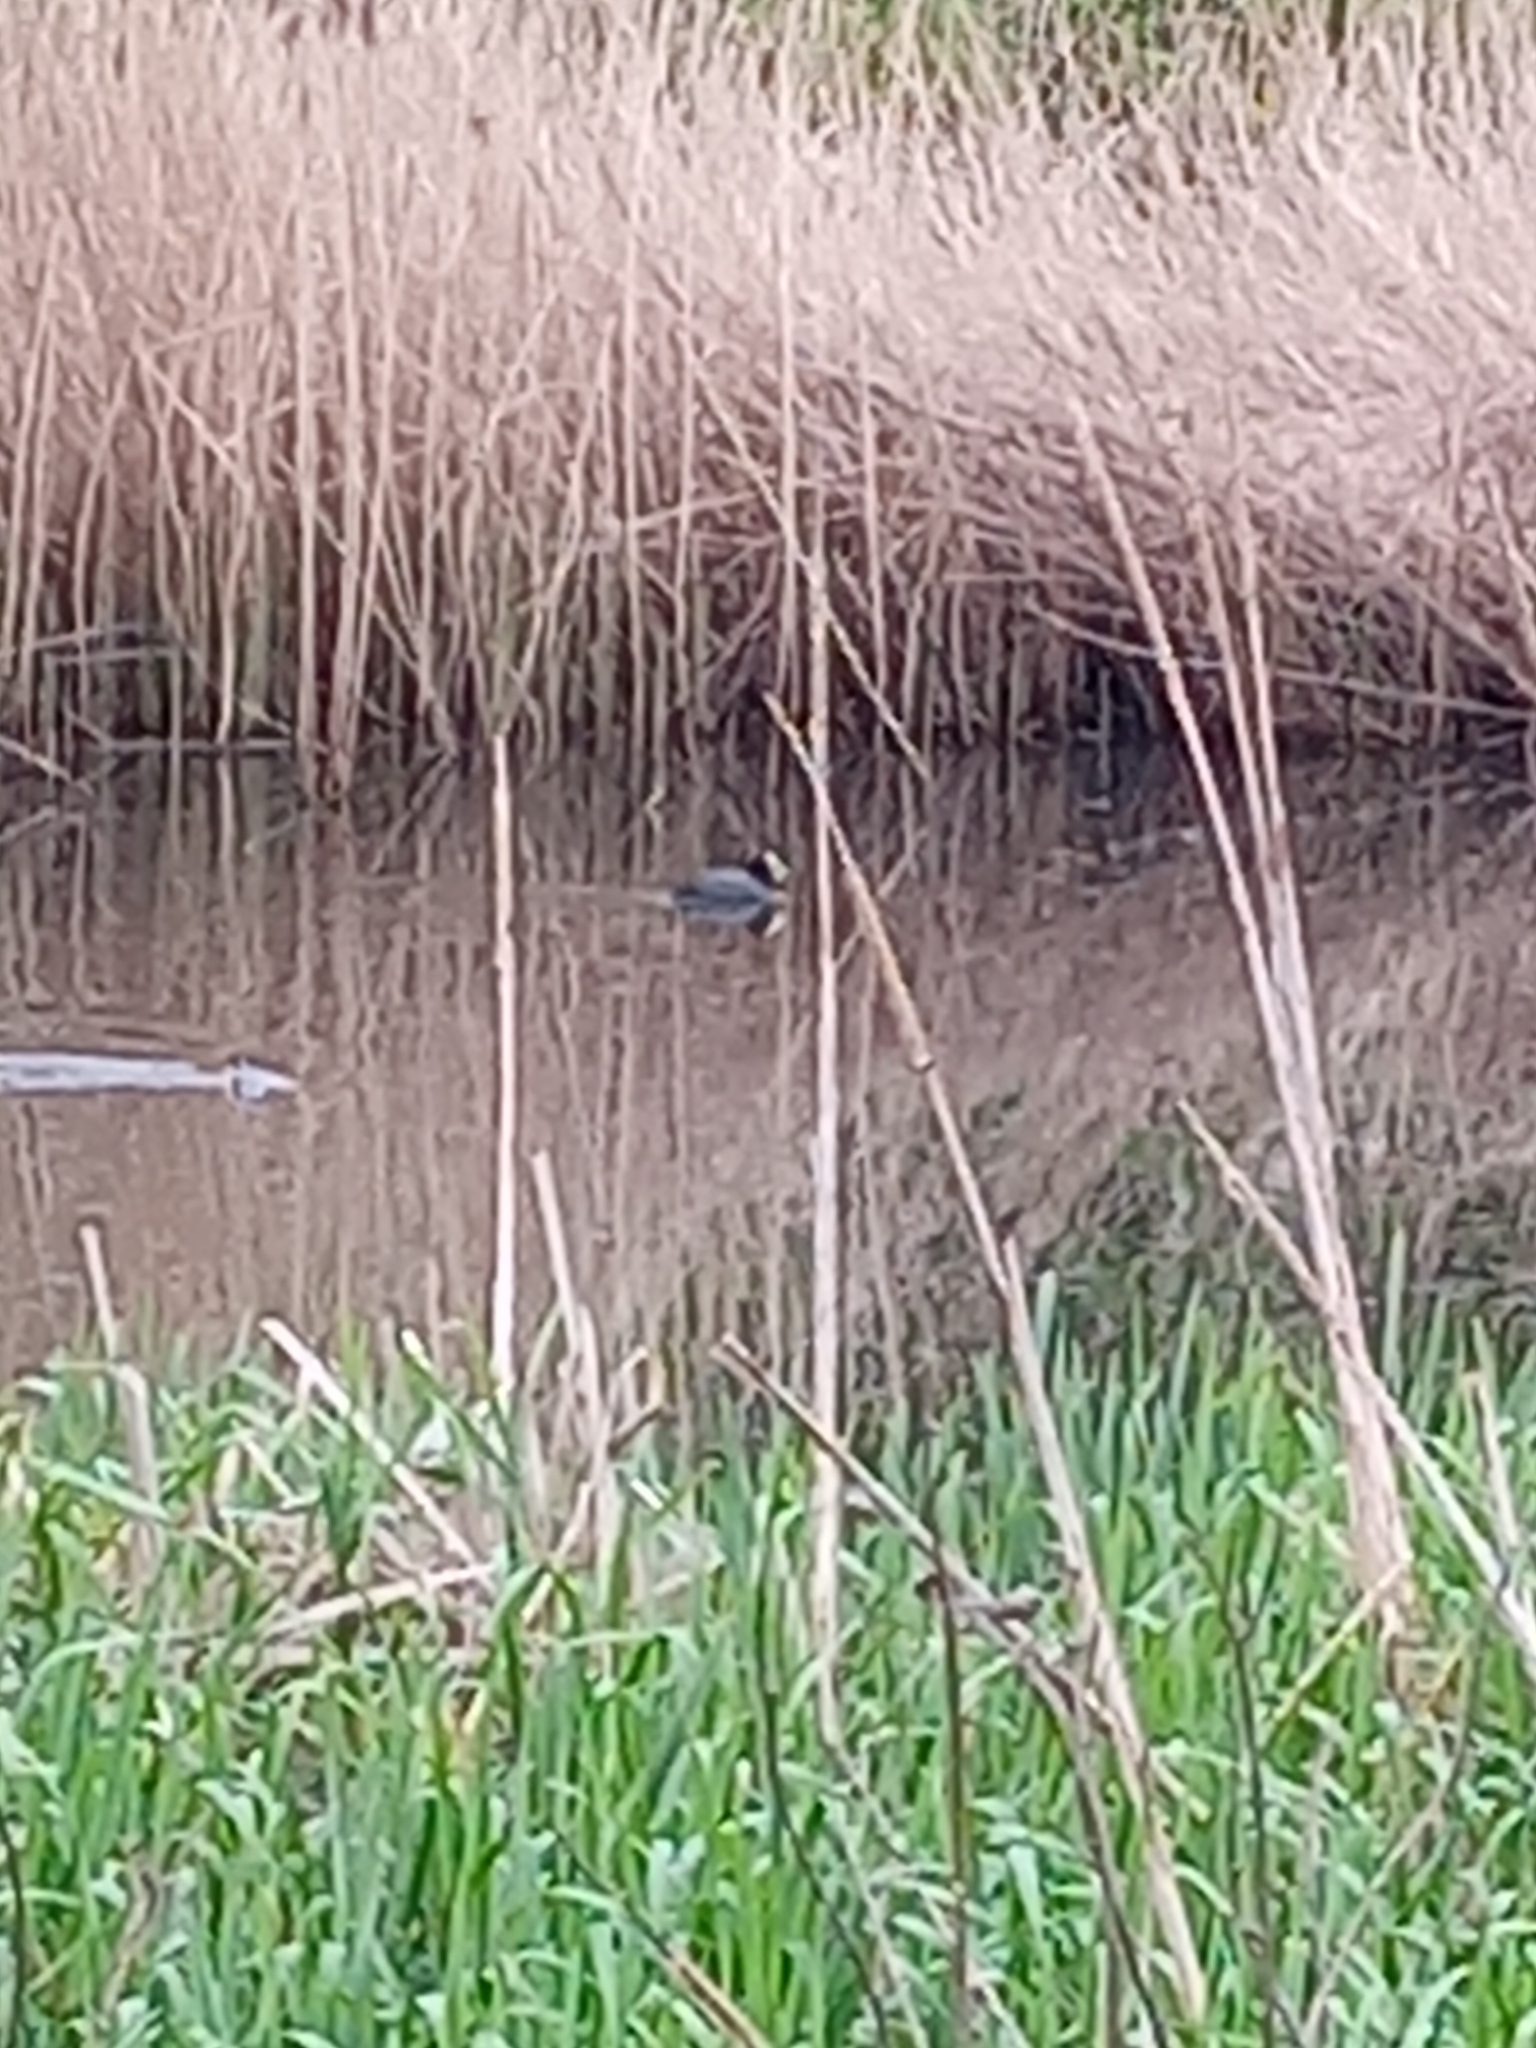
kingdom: Animalia
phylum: Chordata
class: Aves
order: Gruiformes
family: Rallidae
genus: Fulica
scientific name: Fulica atra
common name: Eurasian coot
